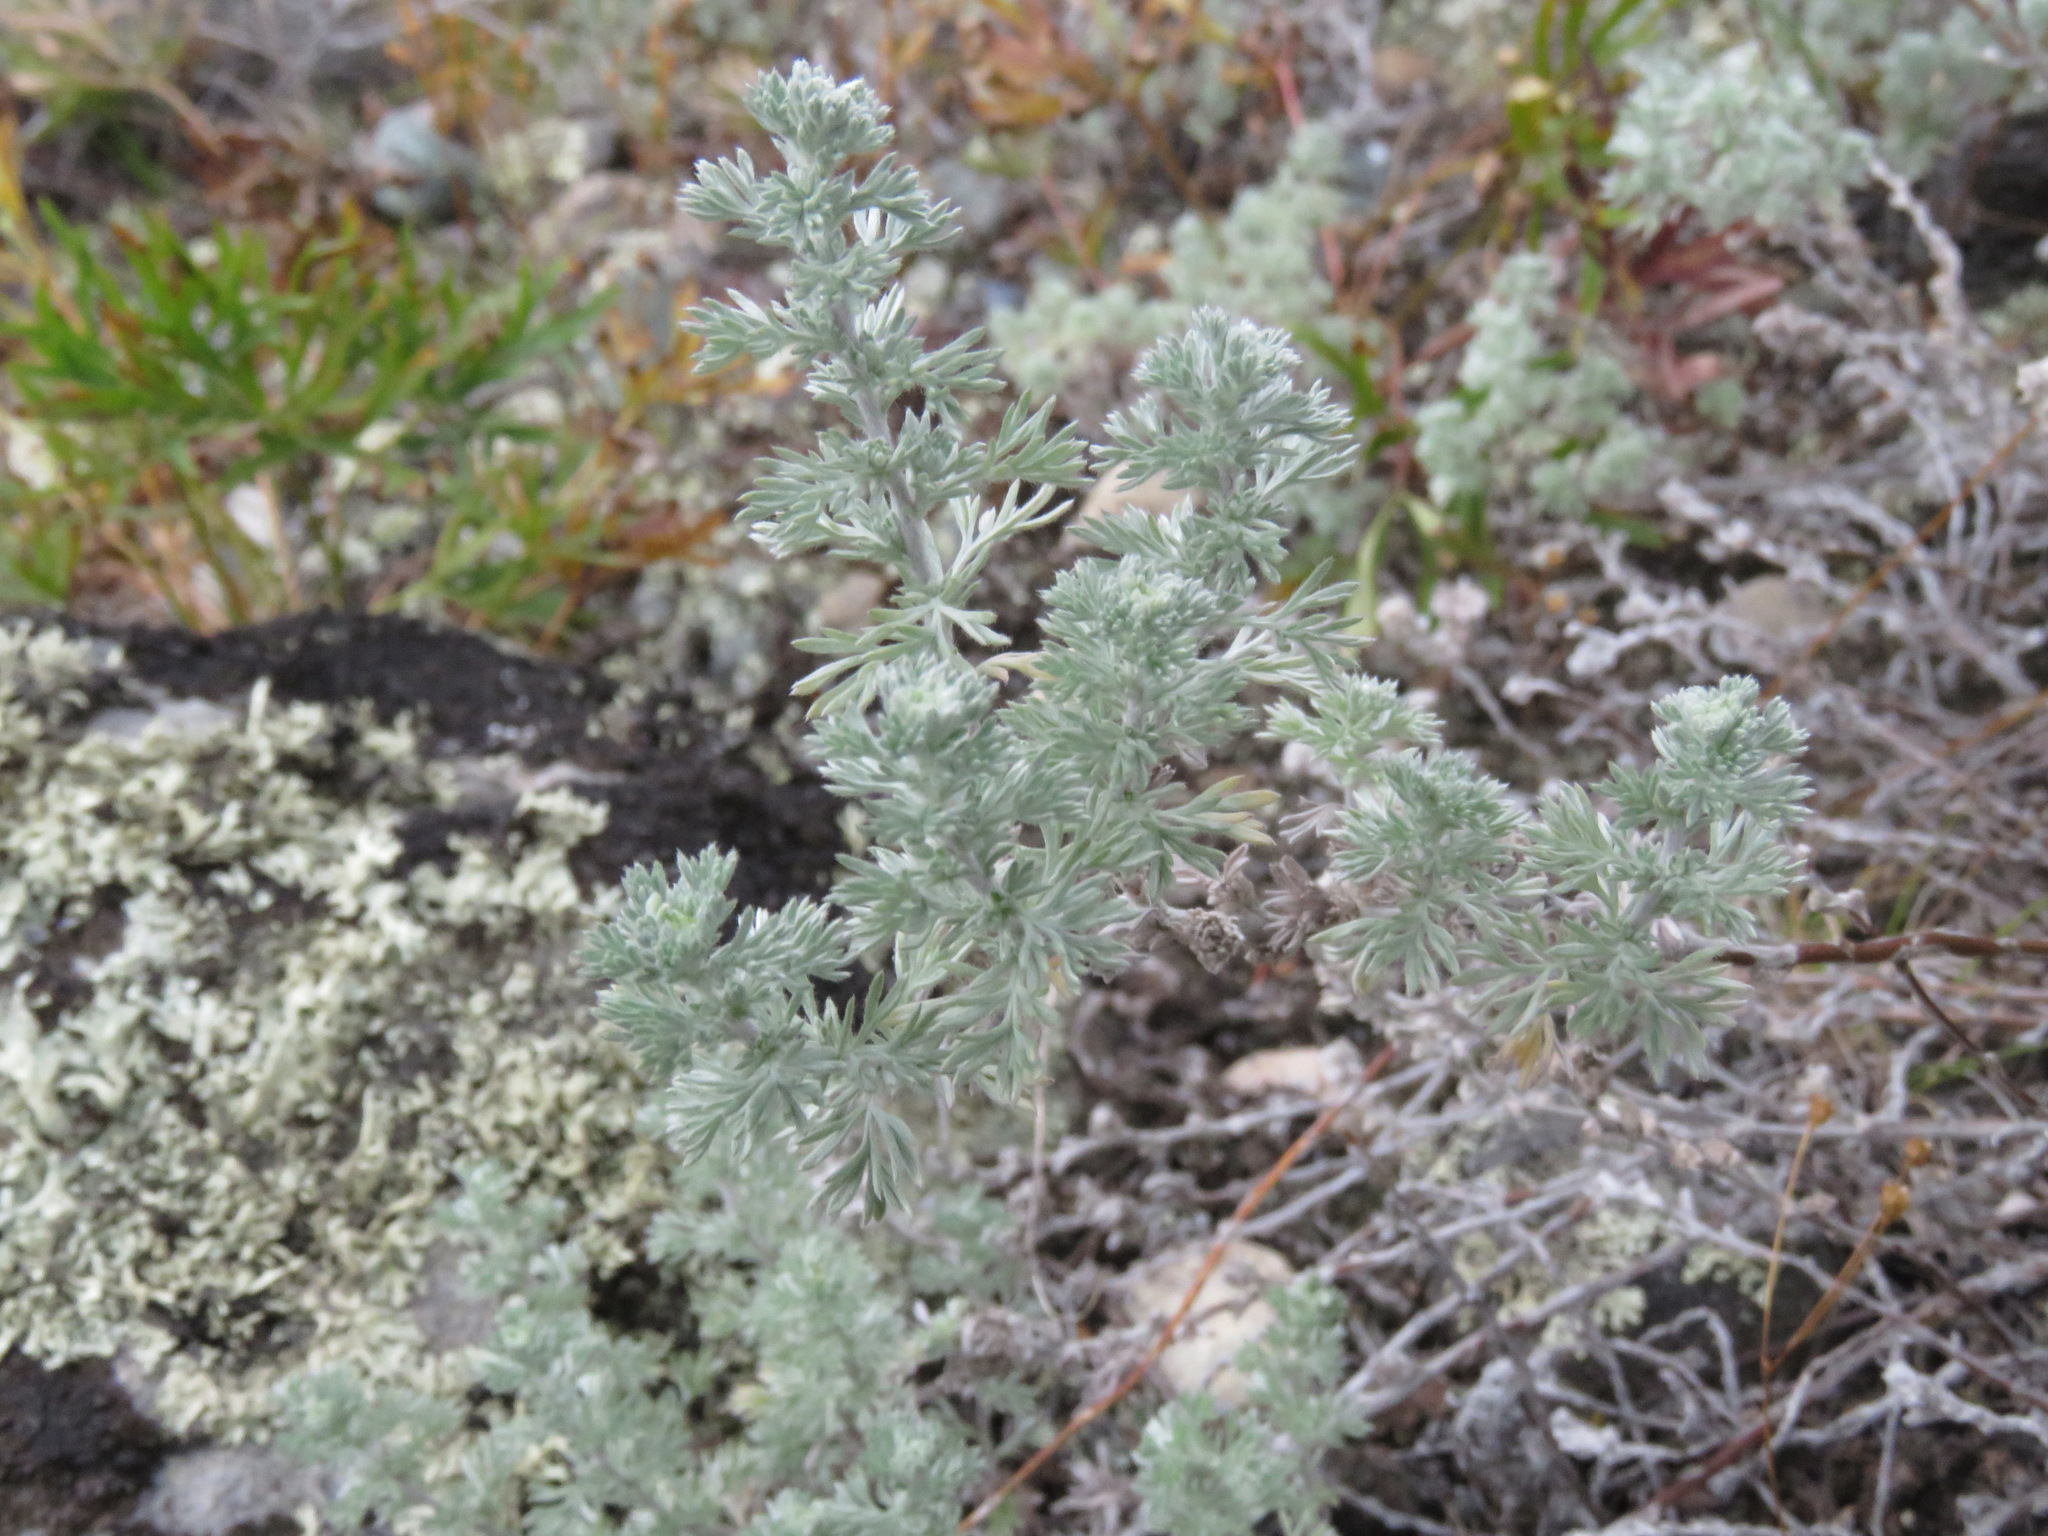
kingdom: Plantae
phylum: Tracheophyta
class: Magnoliopsida
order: Asterales
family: Asteraceae
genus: Artemisia
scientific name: Artemisia frigida
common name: Prairie sagewort
